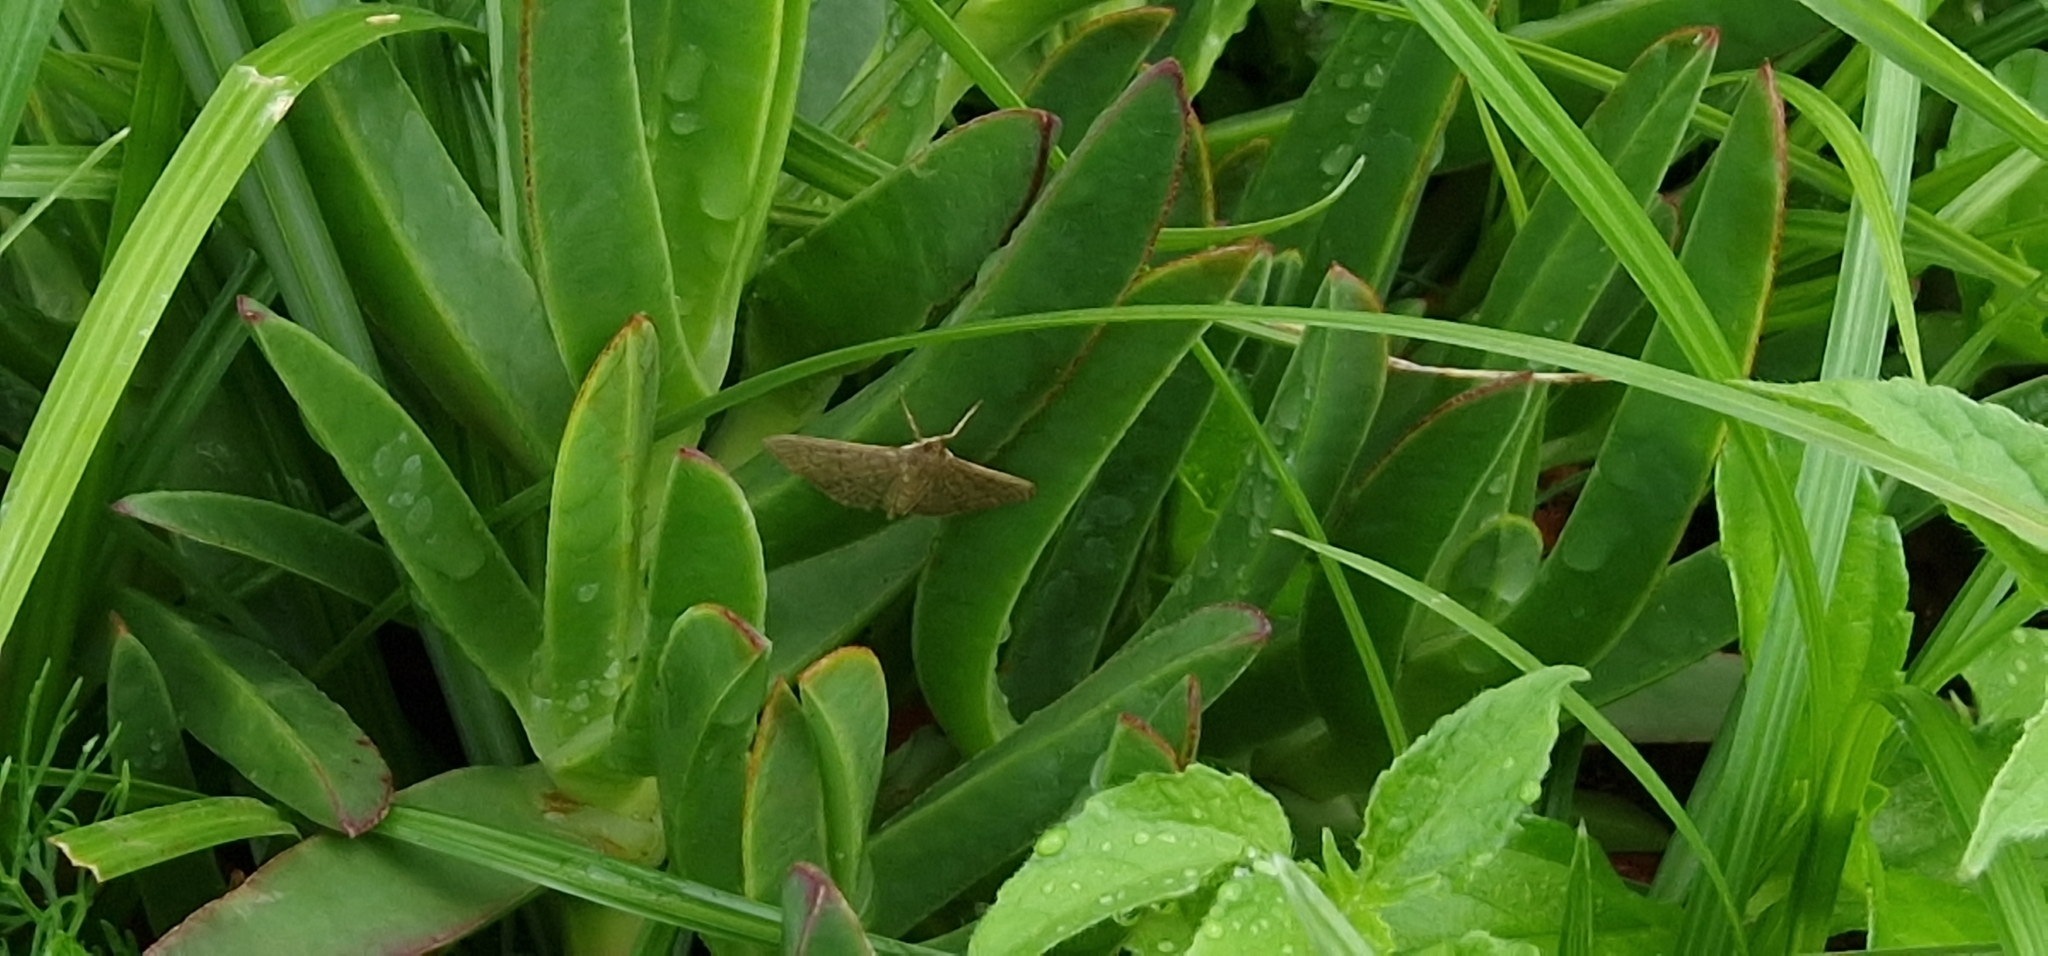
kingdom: Animalia
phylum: Arthropoda
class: Insecta
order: Lepidoptera
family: Crambidae
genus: Herpetogramma
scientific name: Herpetogramma licarsisalis
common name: Grass webworm
